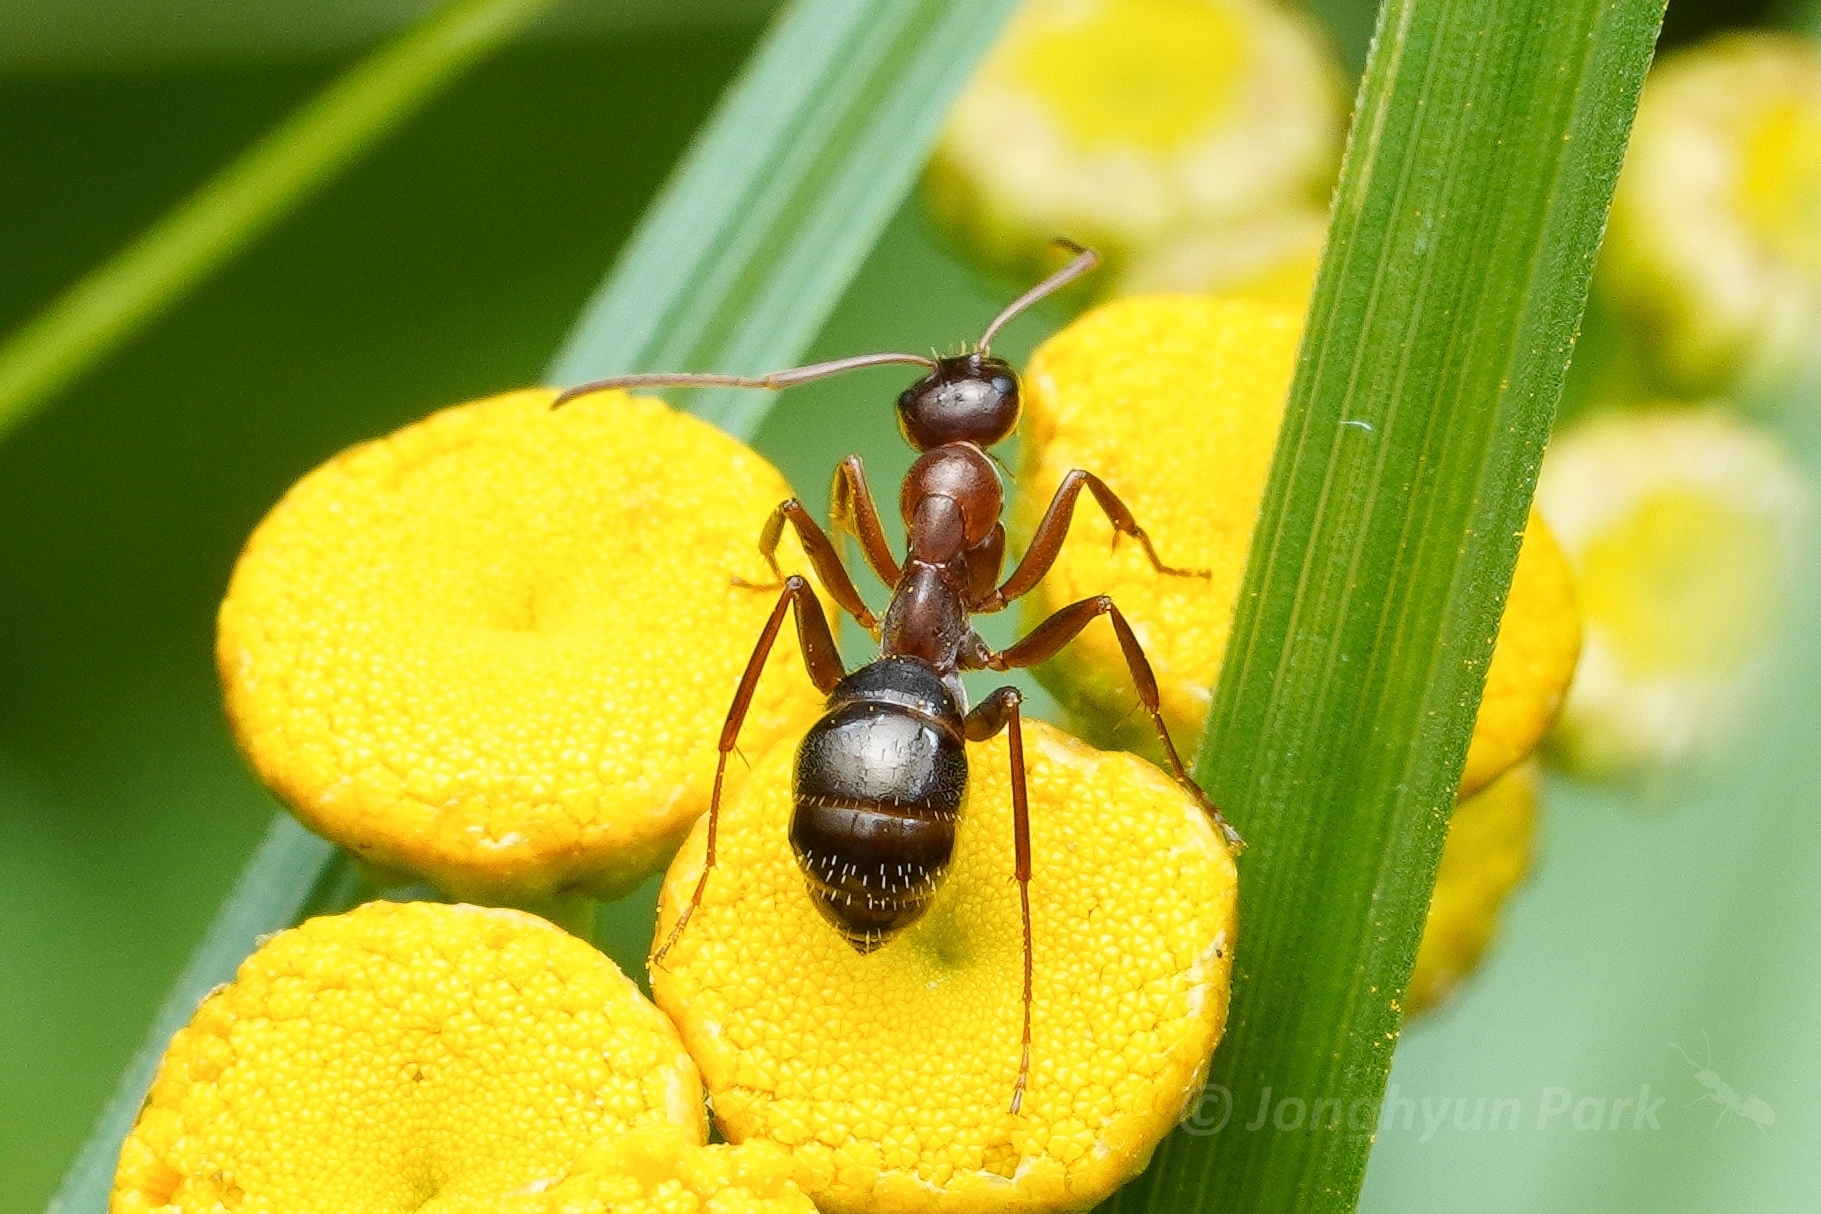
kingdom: Animalia
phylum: Arthropoda
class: Insecta
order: Hymenoptera
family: Formicidae
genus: Formica
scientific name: Formica pallidefulva
